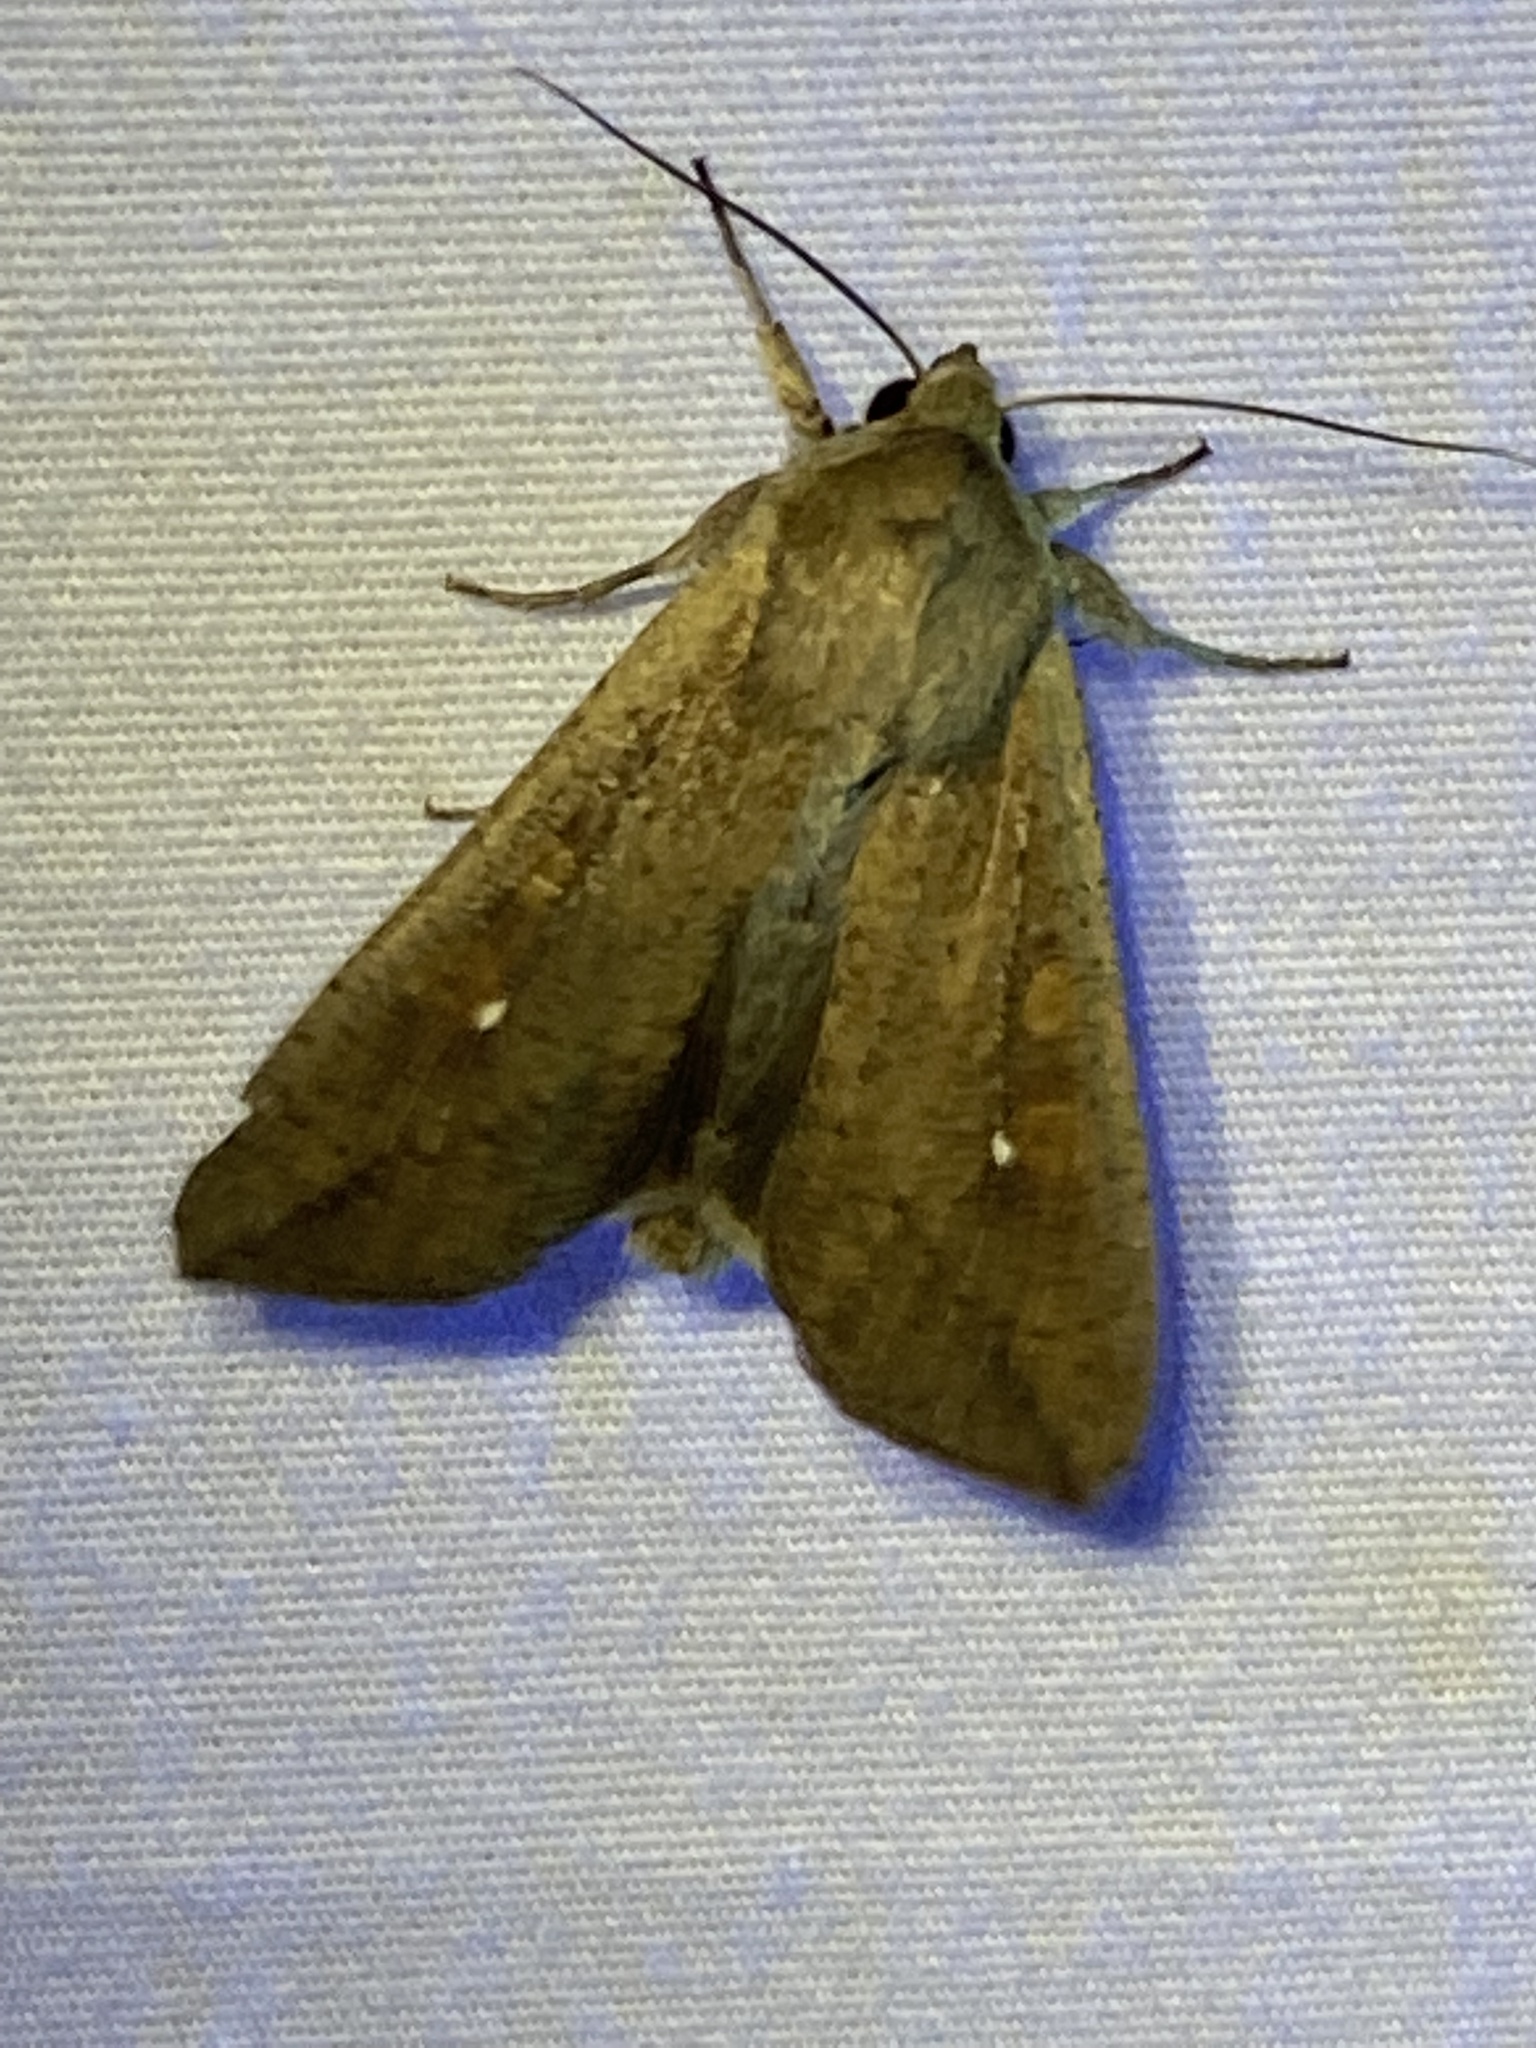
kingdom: Animalia
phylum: Arthropoda
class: Insecta
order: Lepidoptera
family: Noctuidae
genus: Mythimna
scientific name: Mythimna unipuncta
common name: White-speck
